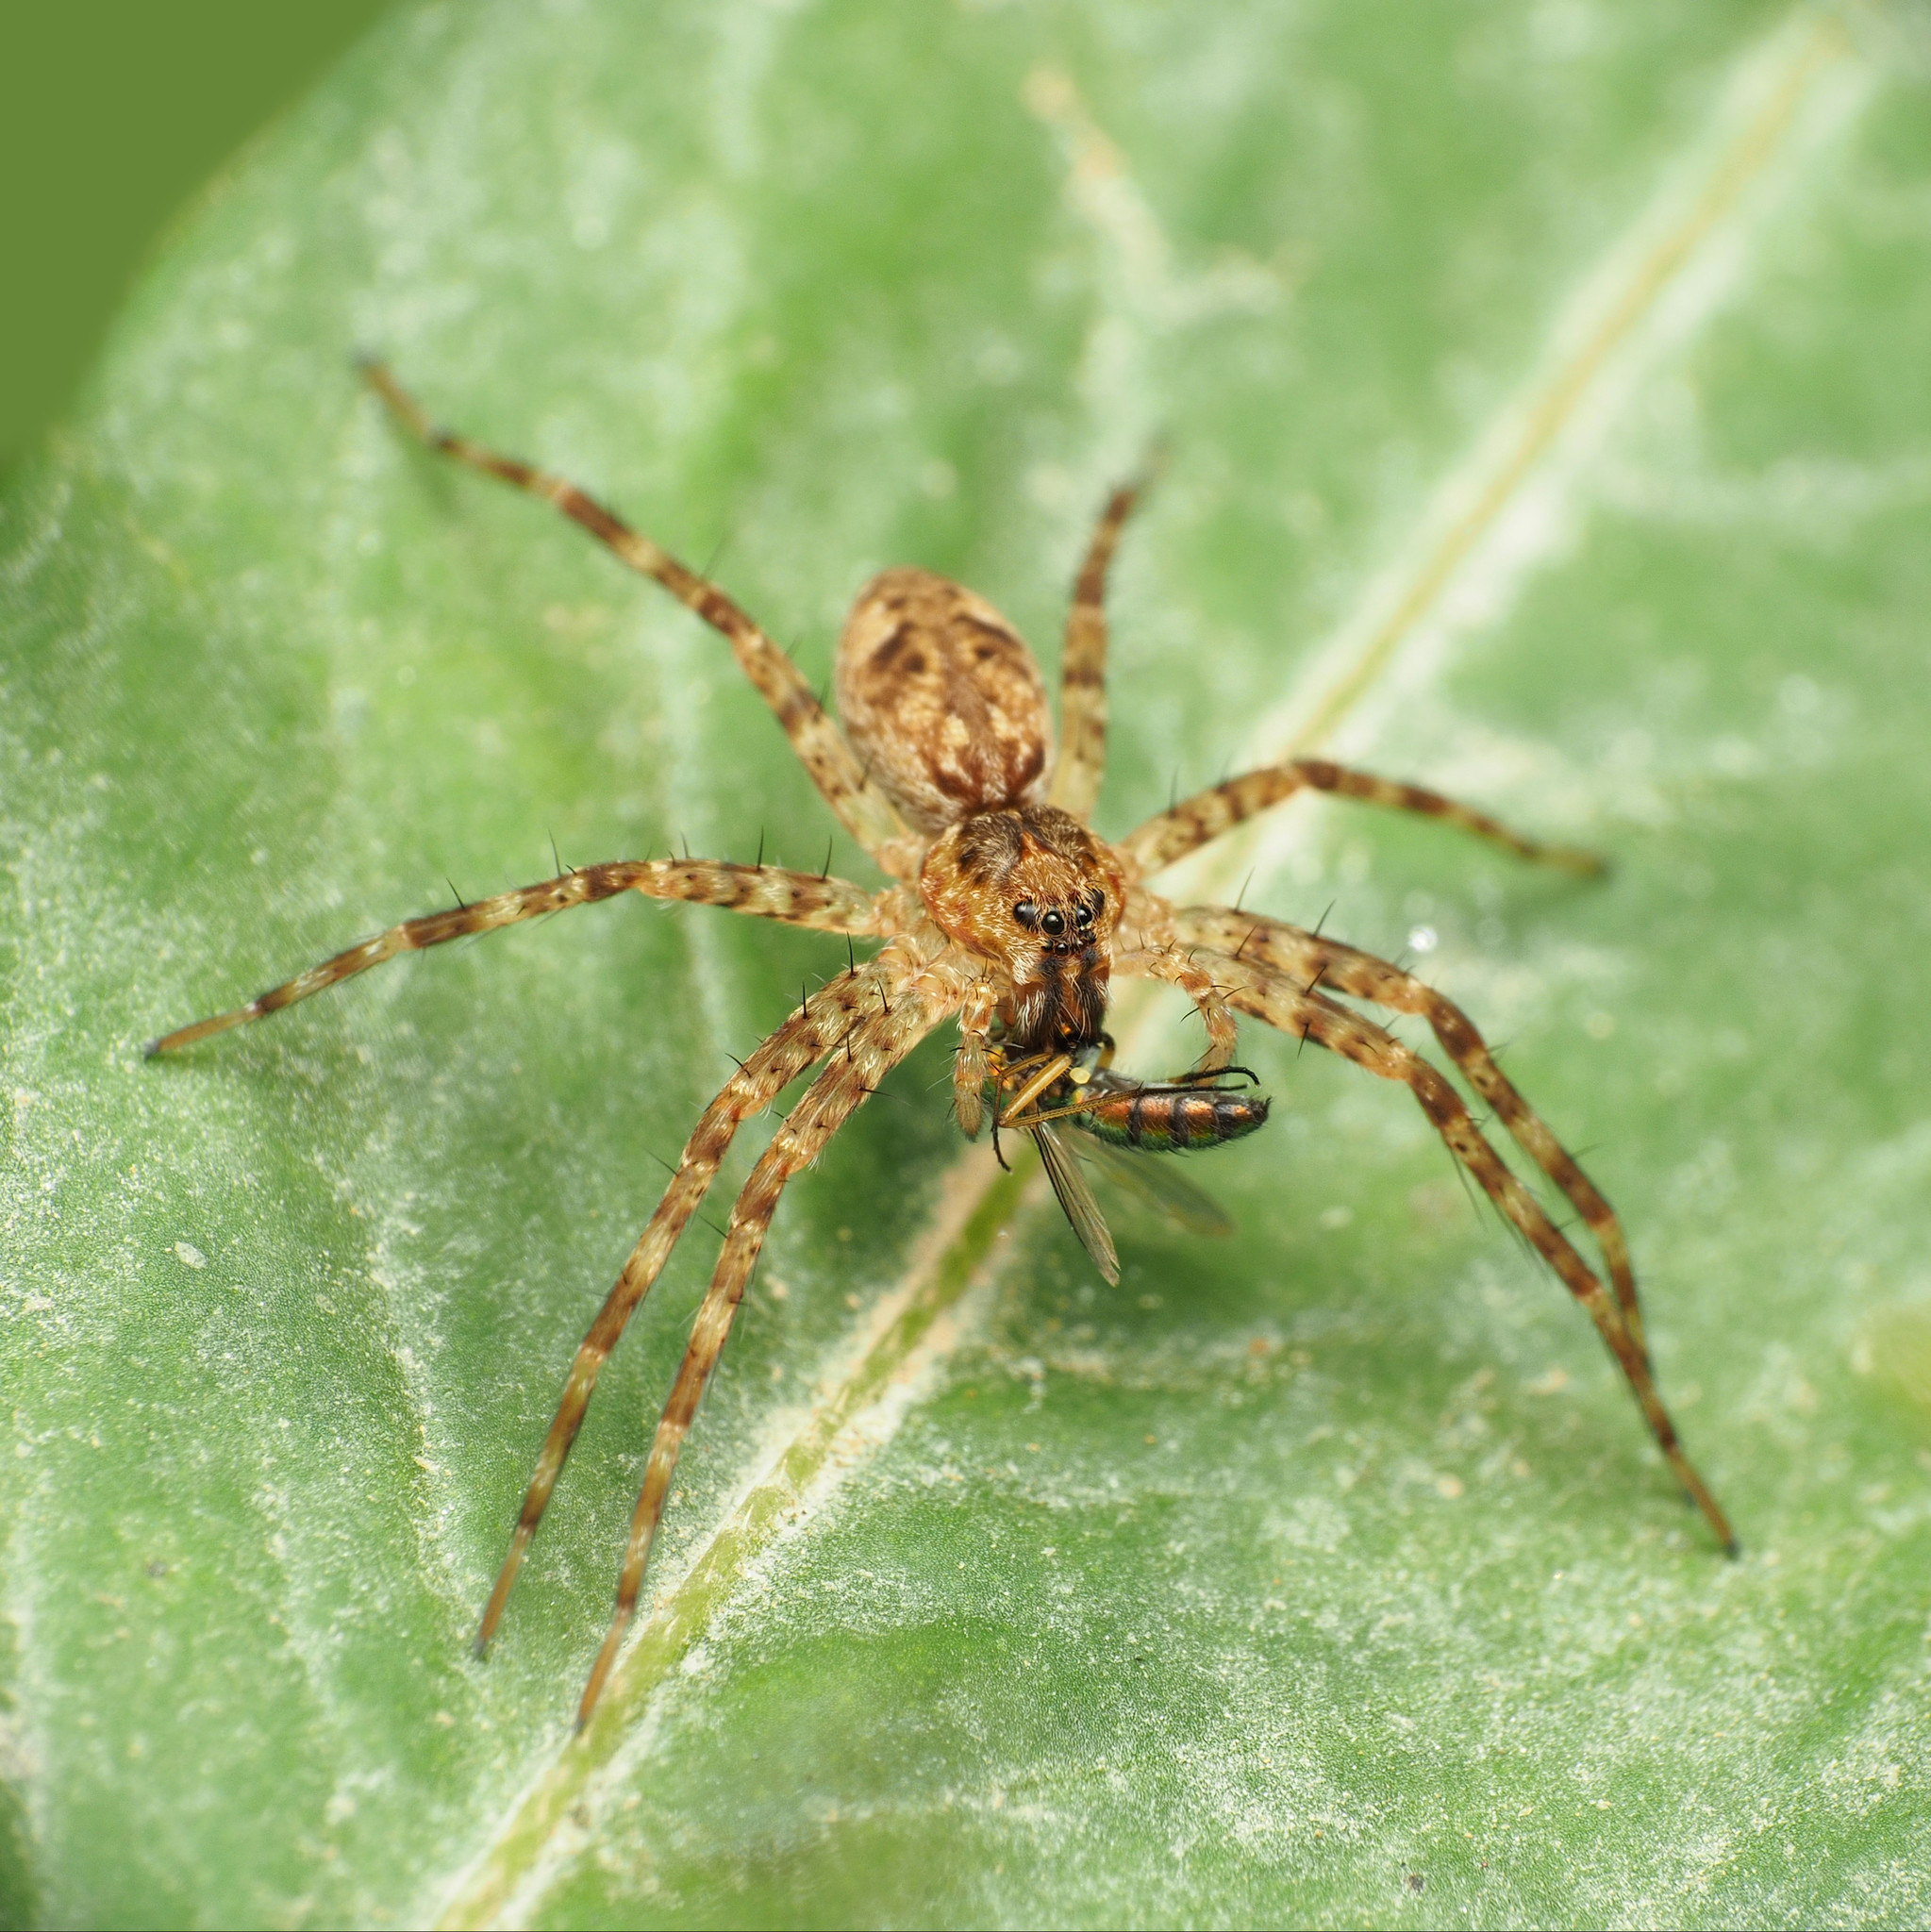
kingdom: Animalia
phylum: Arthropoda
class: Arachnida
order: Araneae
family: Pisauridae
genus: Dolomedes
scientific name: Dolomedes tenebrosus
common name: Dark fishing spider
